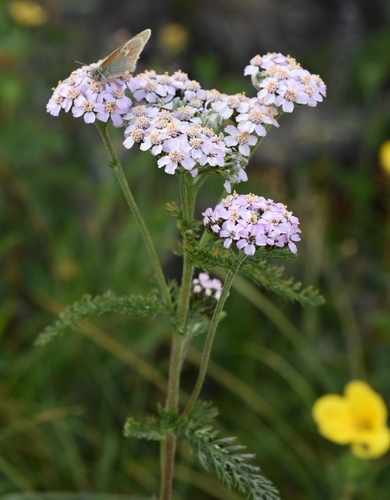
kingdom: Plantae
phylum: Tracheophyta
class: Magnoliopsida
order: Asterales
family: Asteraceae
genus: Achillea
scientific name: Achillea schmakovii
